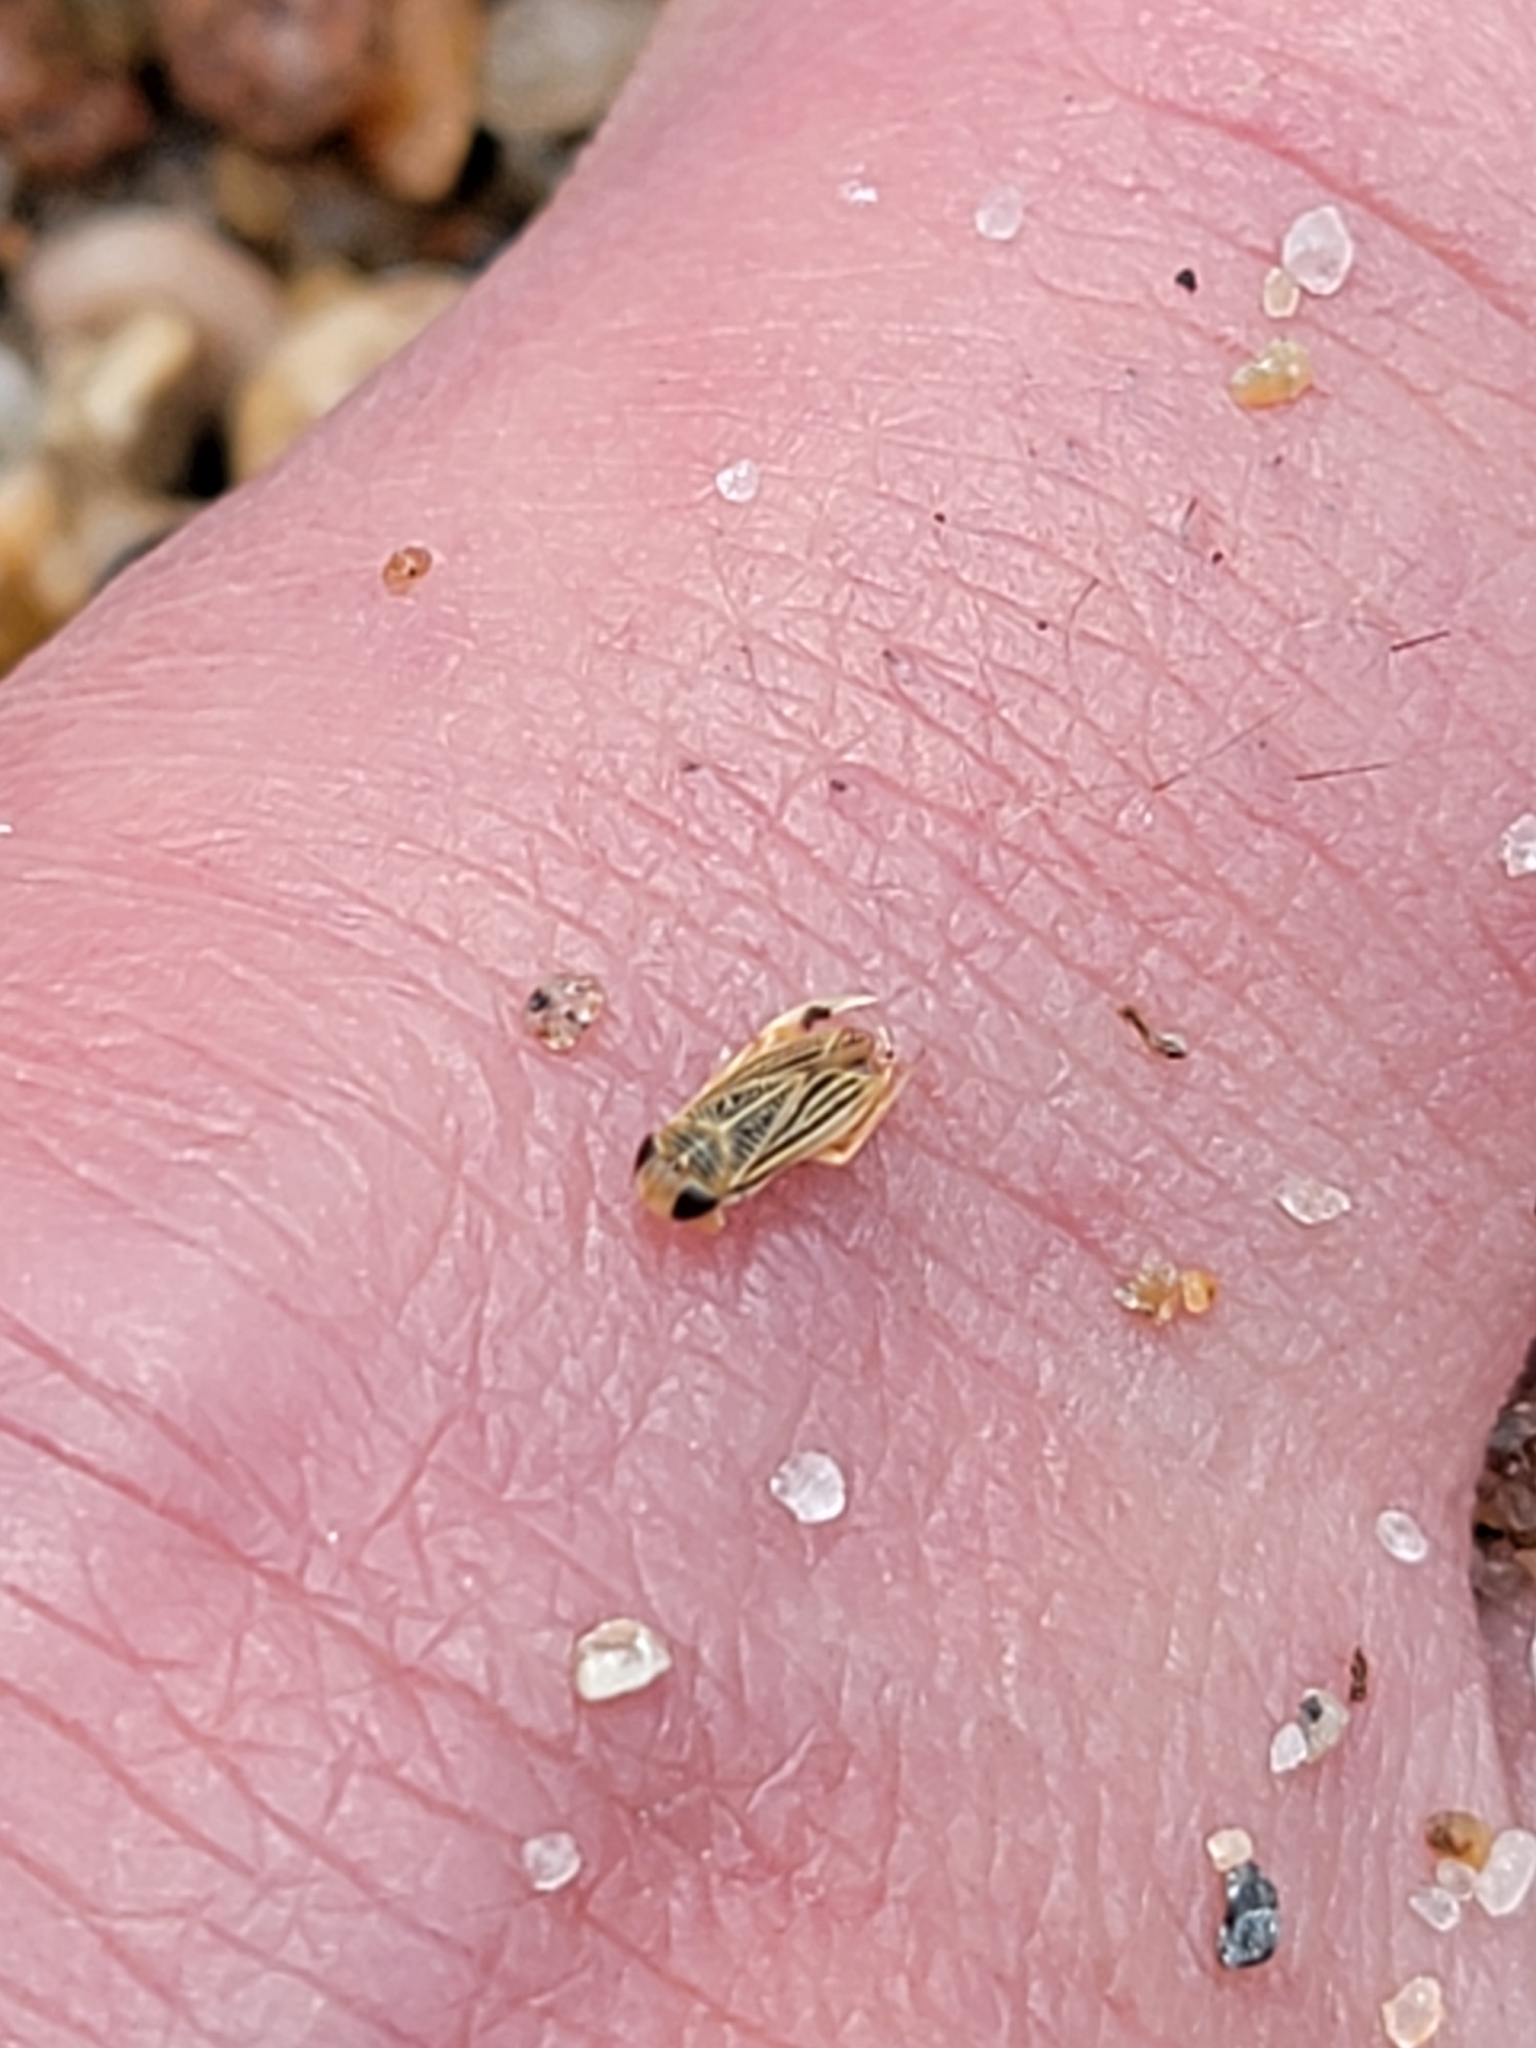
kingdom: Animalia
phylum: Arthropoda
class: Insecta
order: Hemiptera
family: Corixidae
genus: Sigara
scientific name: Sigara trilineata
